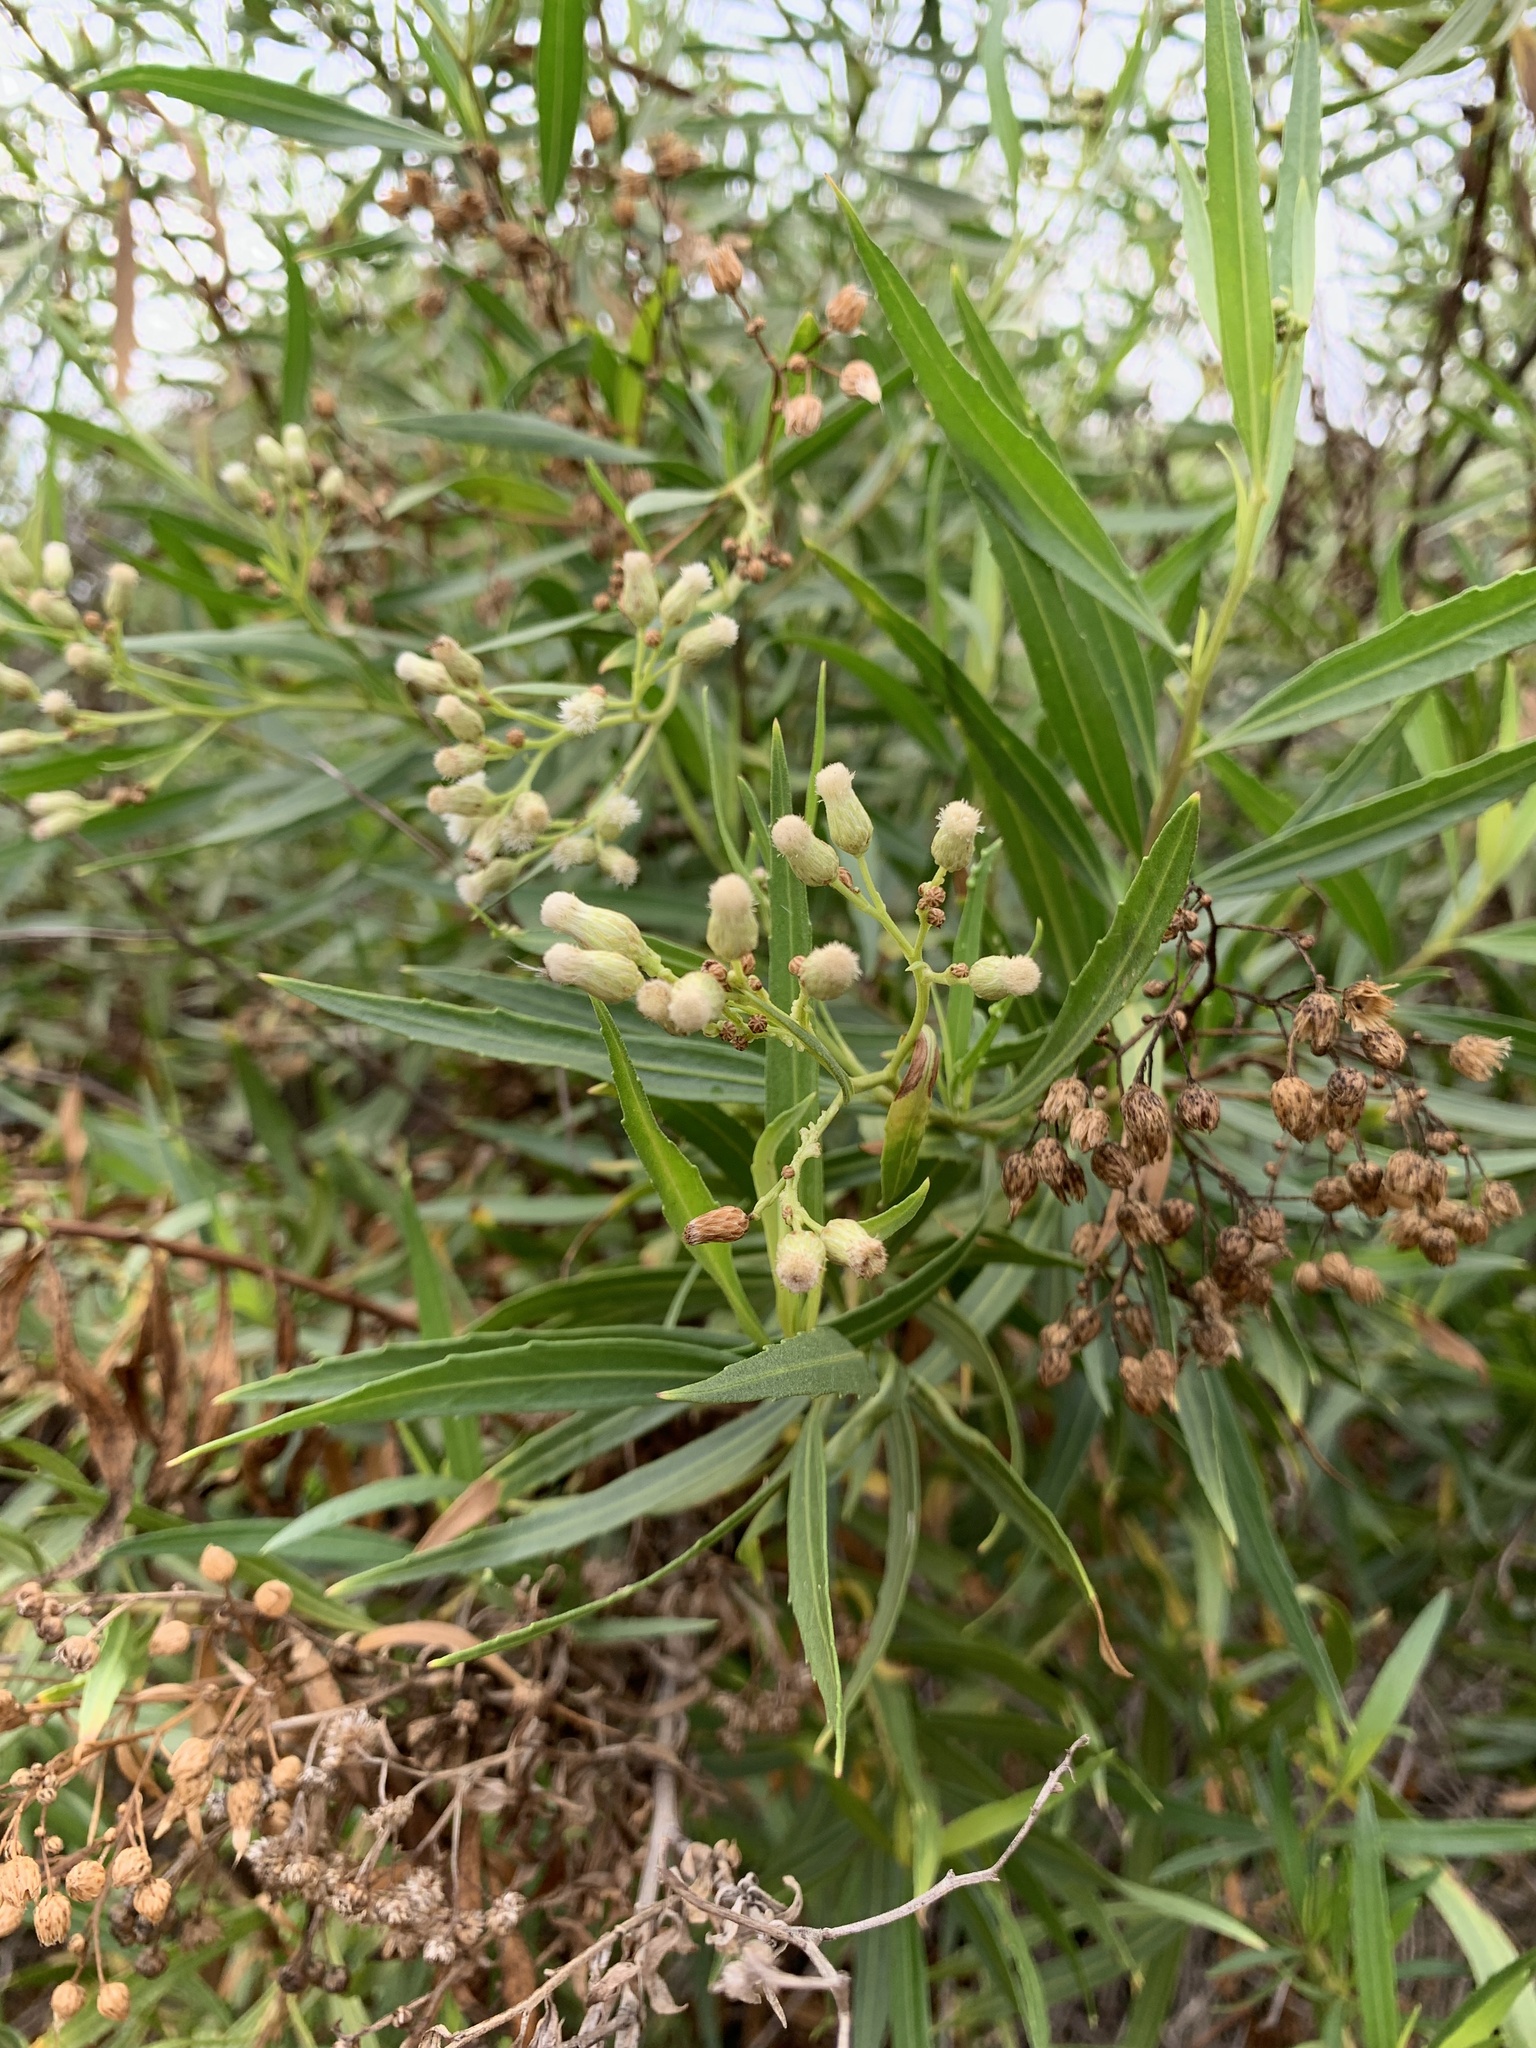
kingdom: Plantae
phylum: Tracheophyta
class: Magnoliopsida
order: Asterales
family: Asteraceae
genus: Baccharis
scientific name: Baccharis salicifolia
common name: Sticky baccharis
